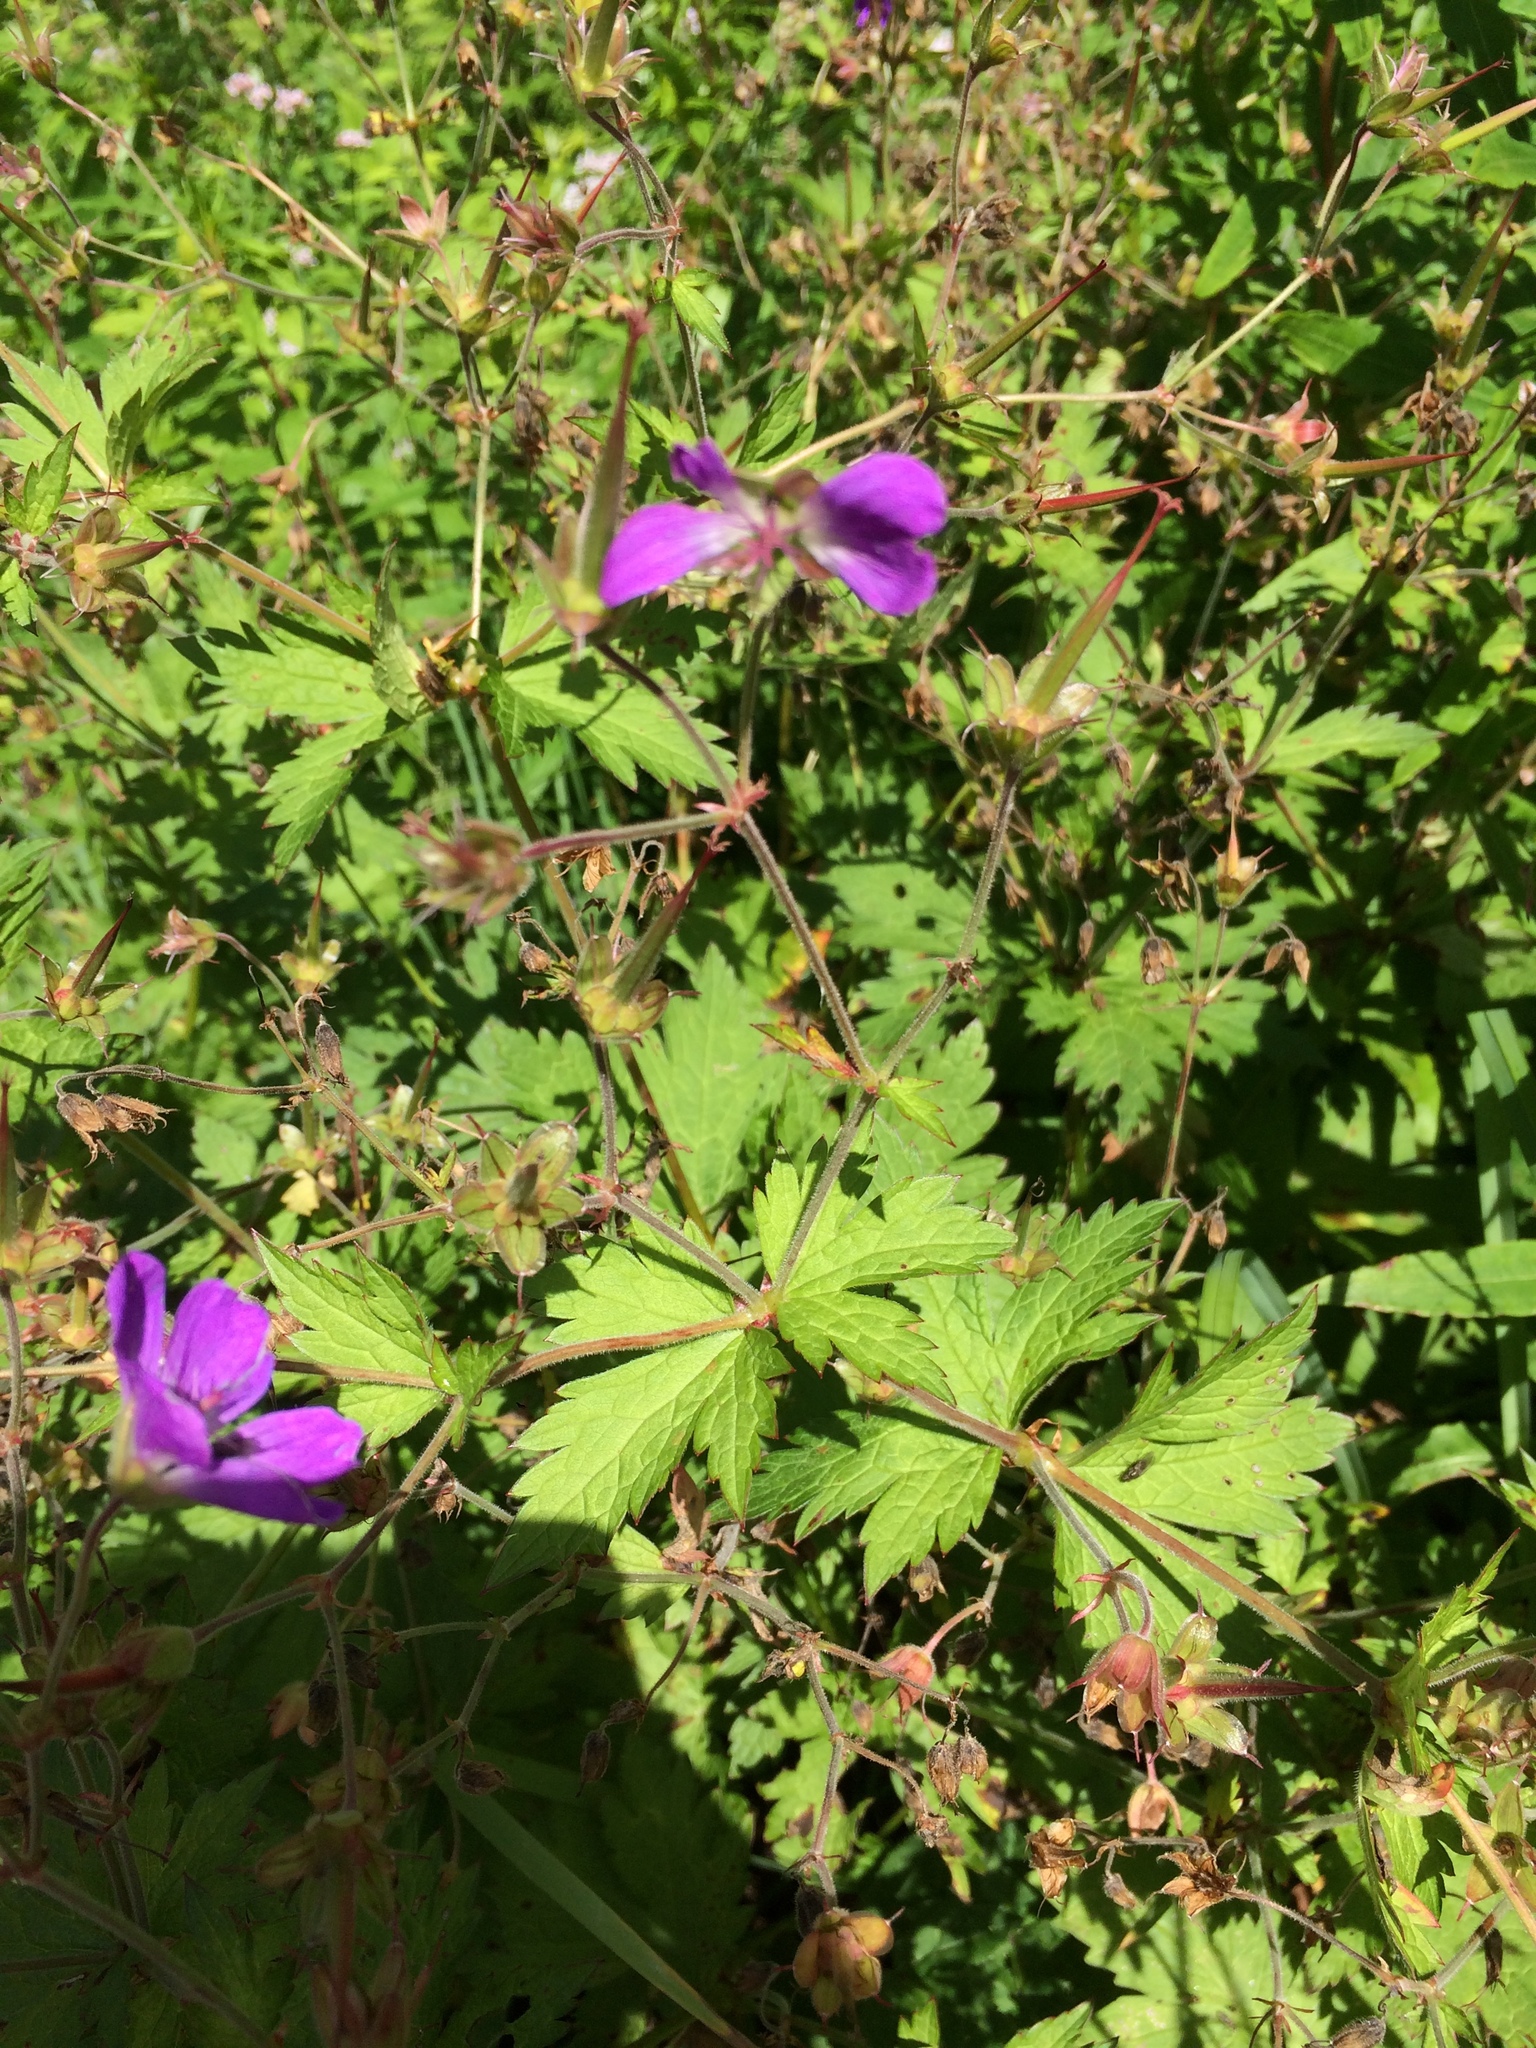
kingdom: Plantae
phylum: Tracheophyta
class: Magnoliopsida
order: Geraniales
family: Geraniaceae
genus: Geranium
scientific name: Geranium sylvaticum
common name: Wood crane's-bill
